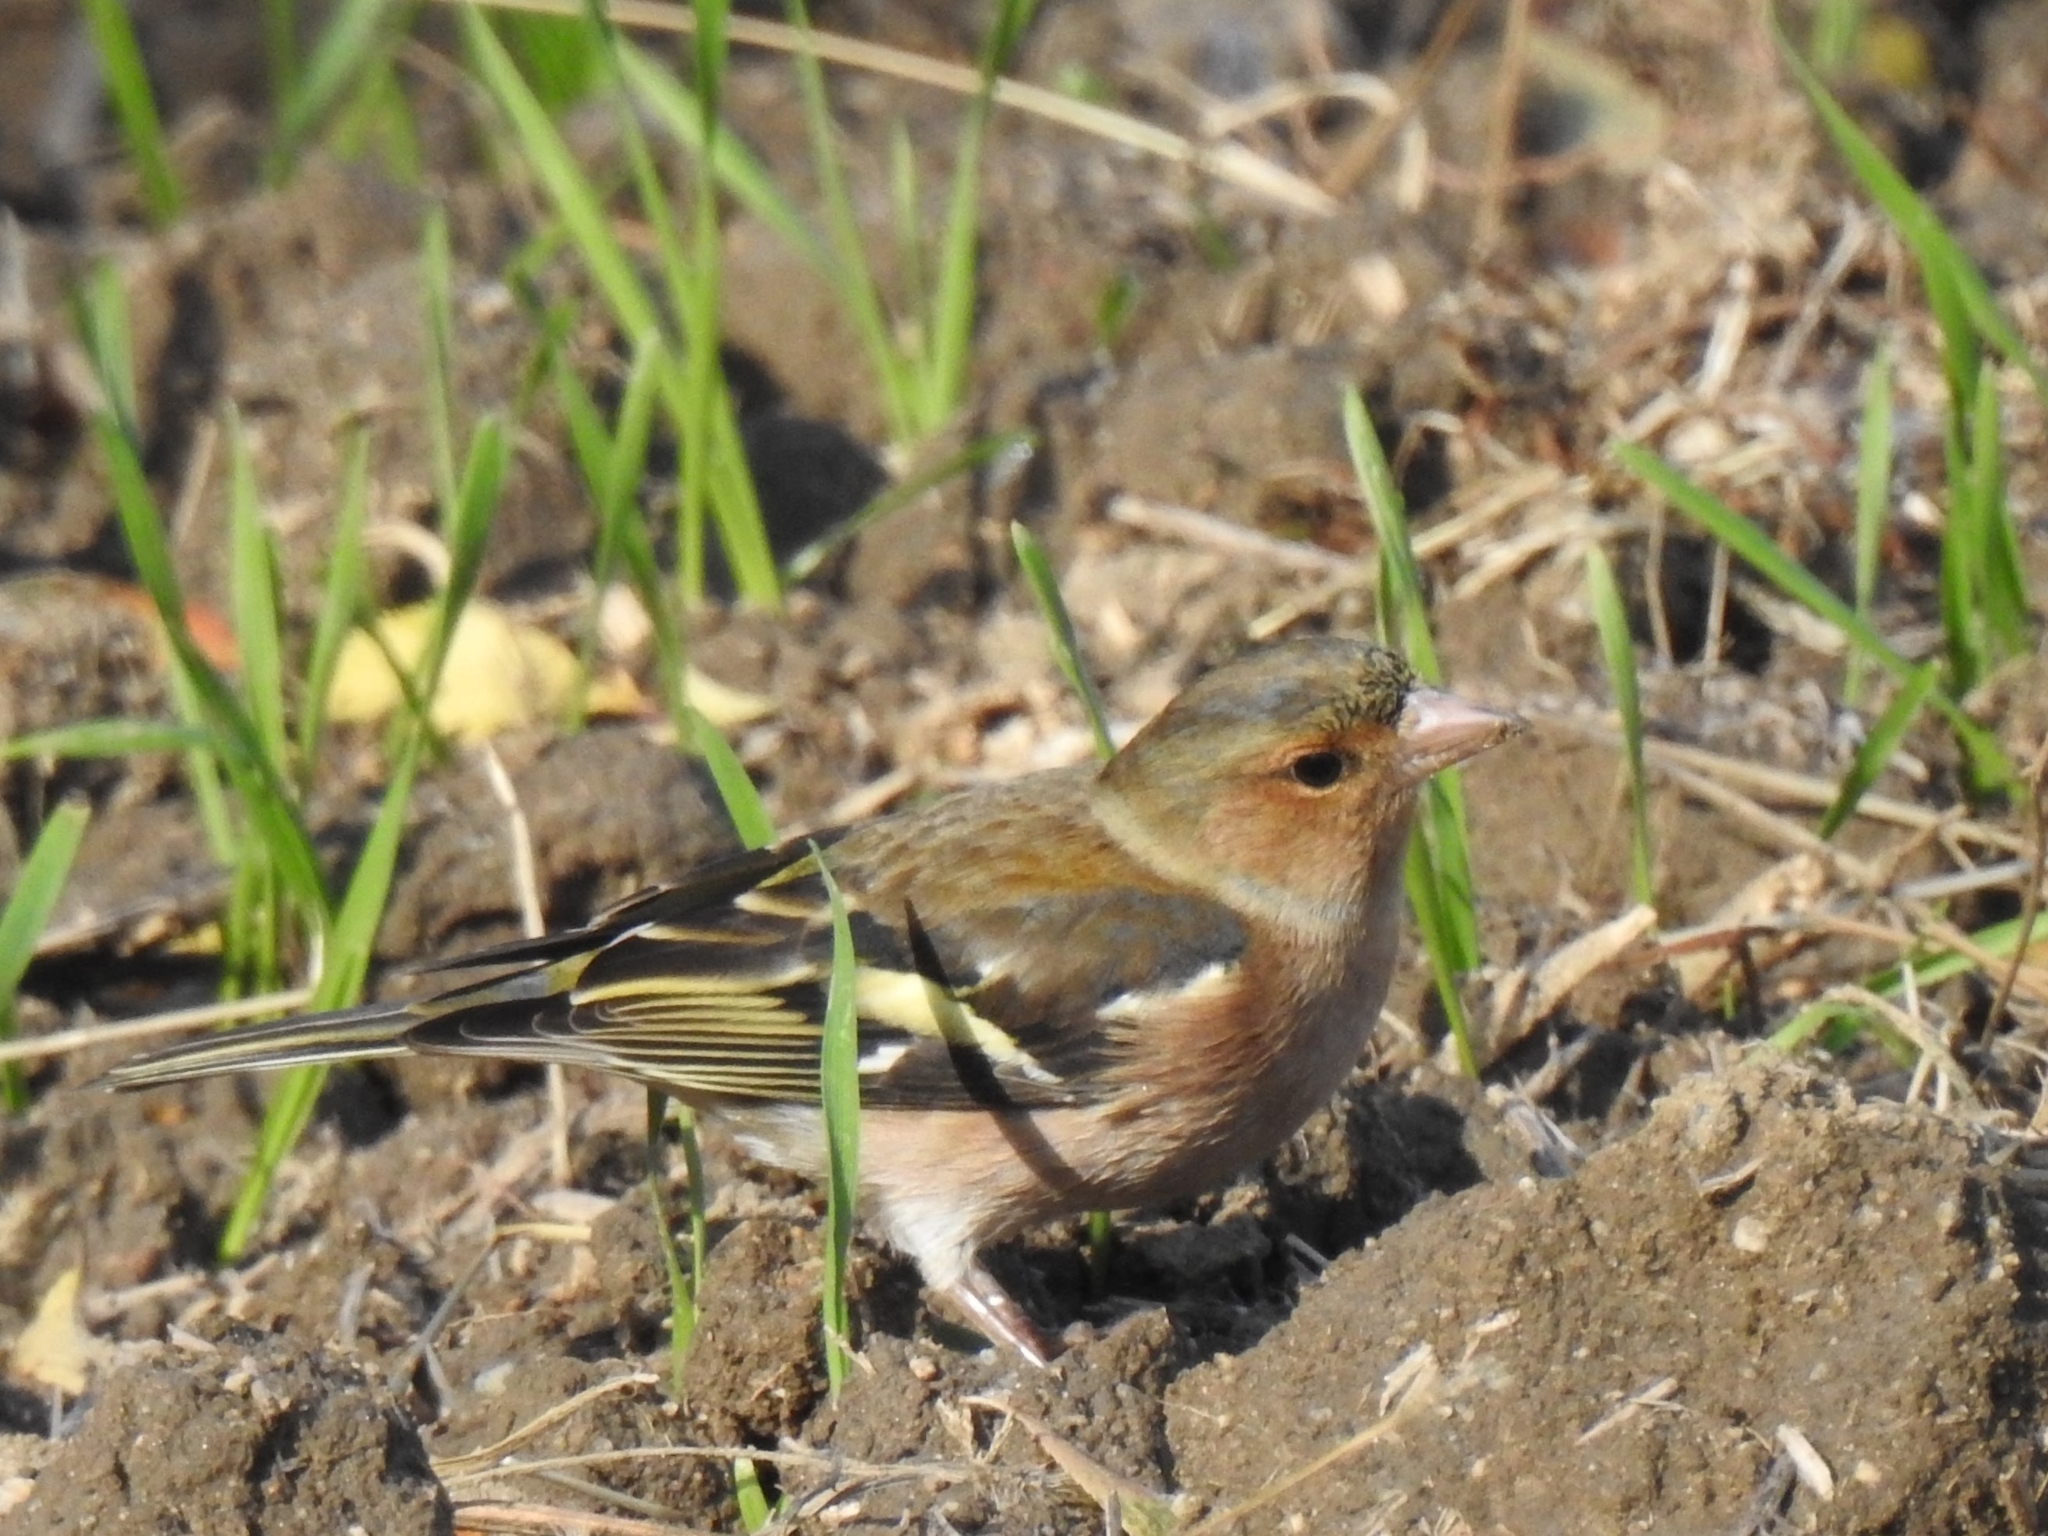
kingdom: Animalia
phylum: Chordata
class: Aves
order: Passeriformes
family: Fringillidae
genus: Fringilla
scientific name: Fringilla coelebs
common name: Common chaffinch
